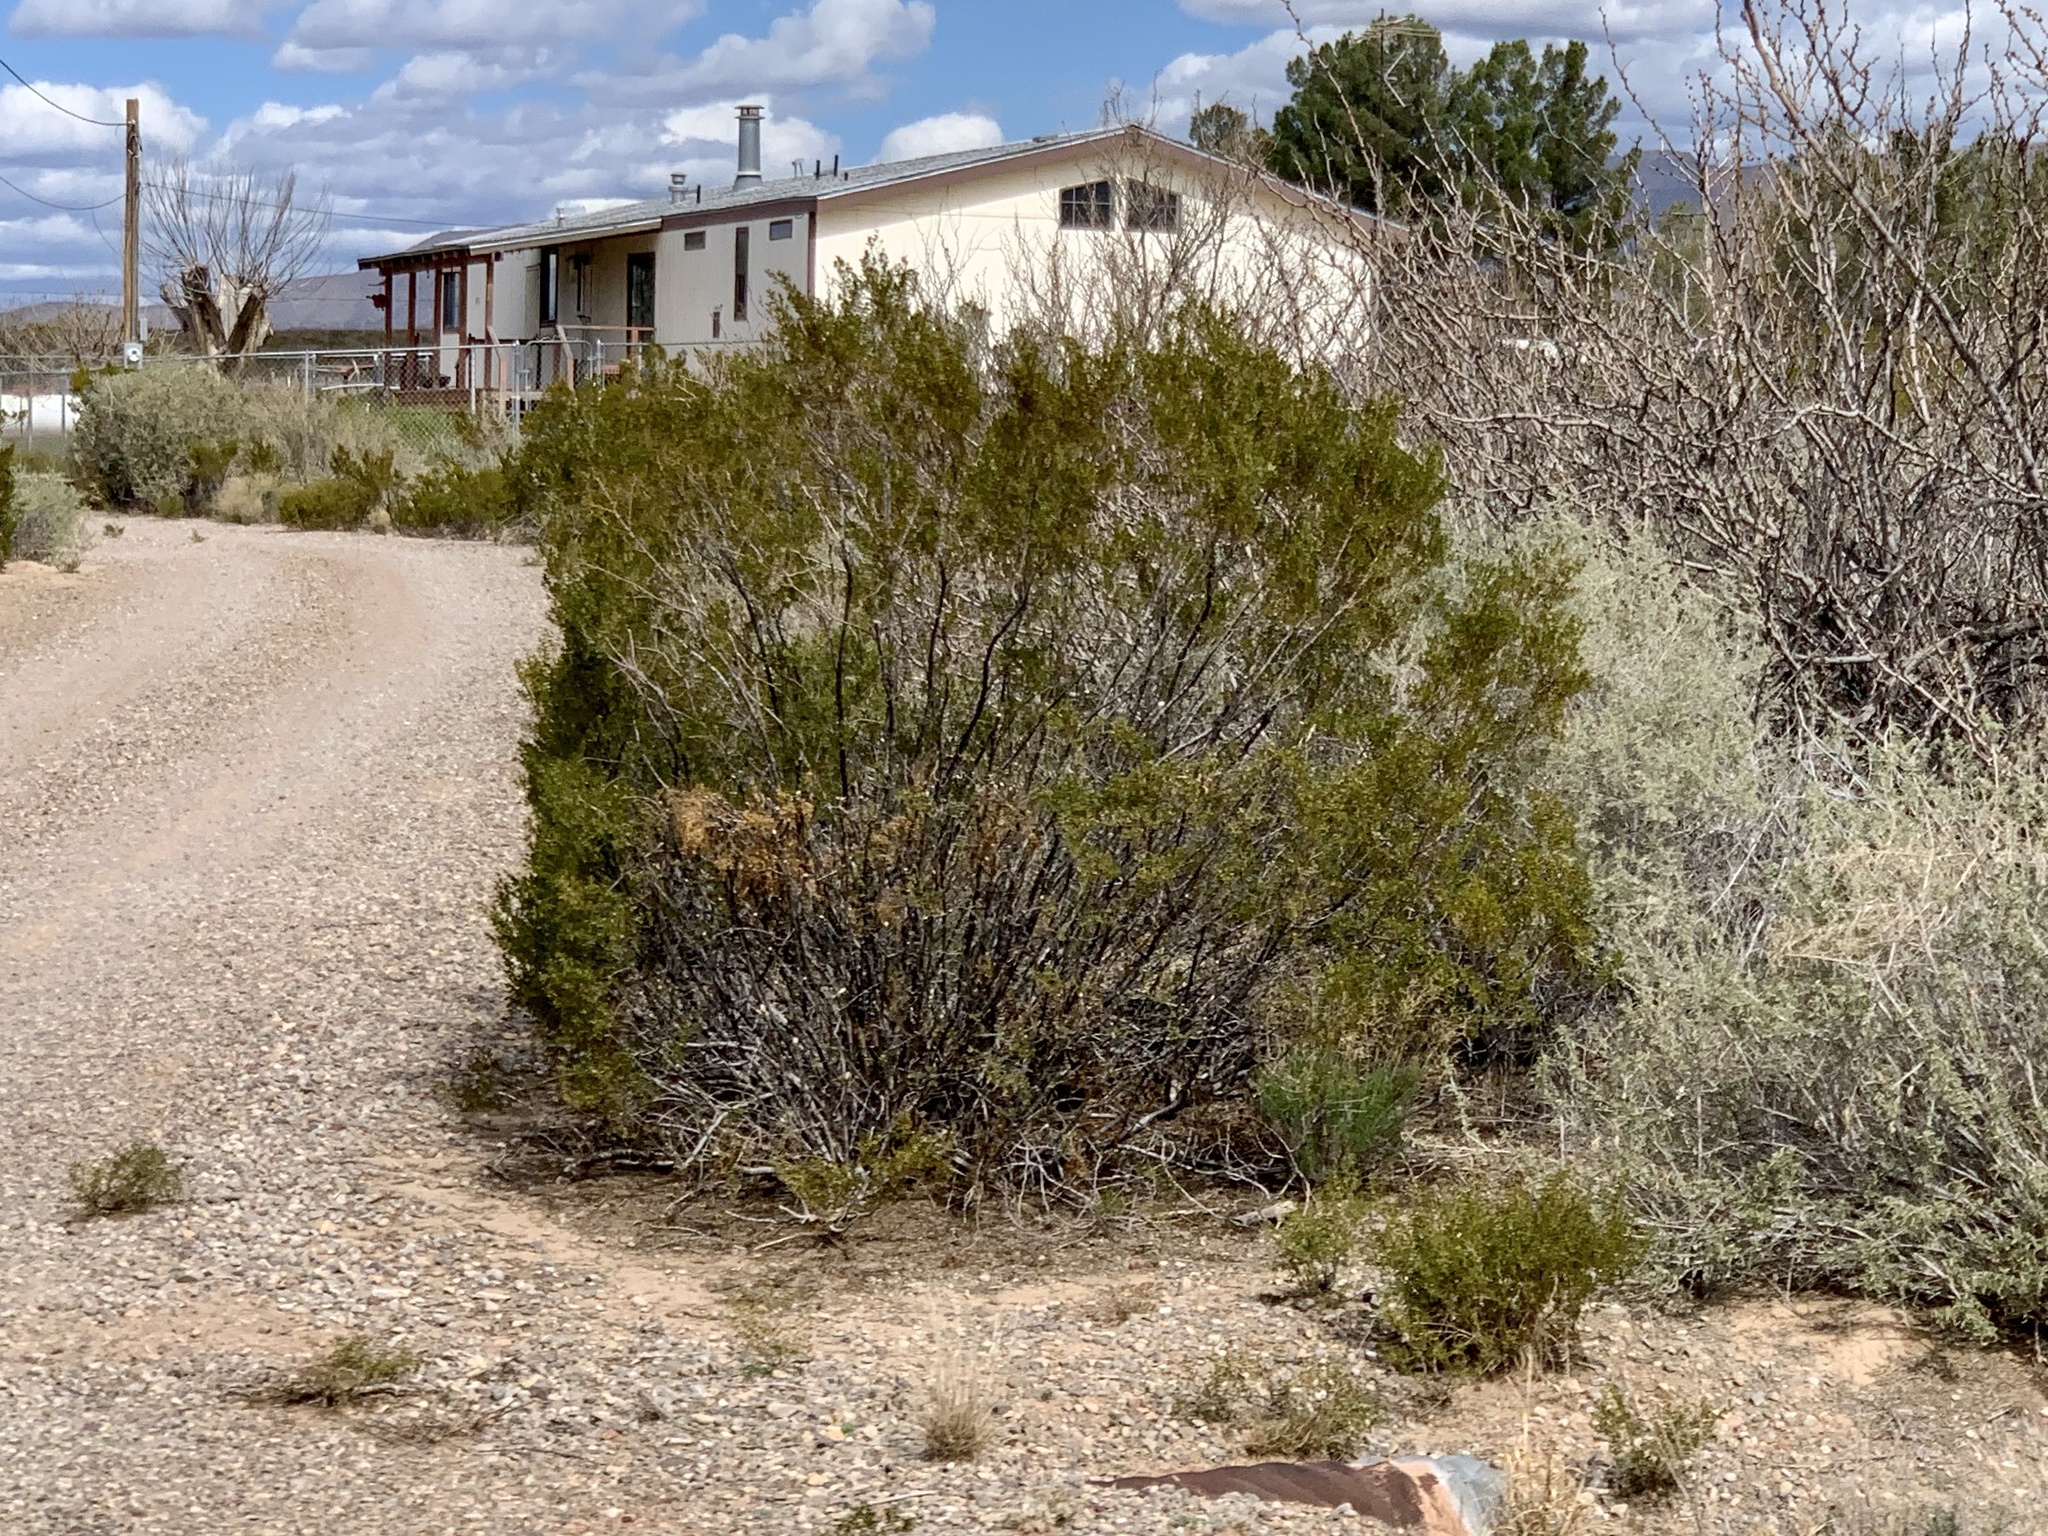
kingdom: Plantae
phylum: Tracheophyta
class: Magnoliopsida
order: Zygophyllales
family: Zygophyllaceae
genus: Larrea
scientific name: Larrea tridentata
